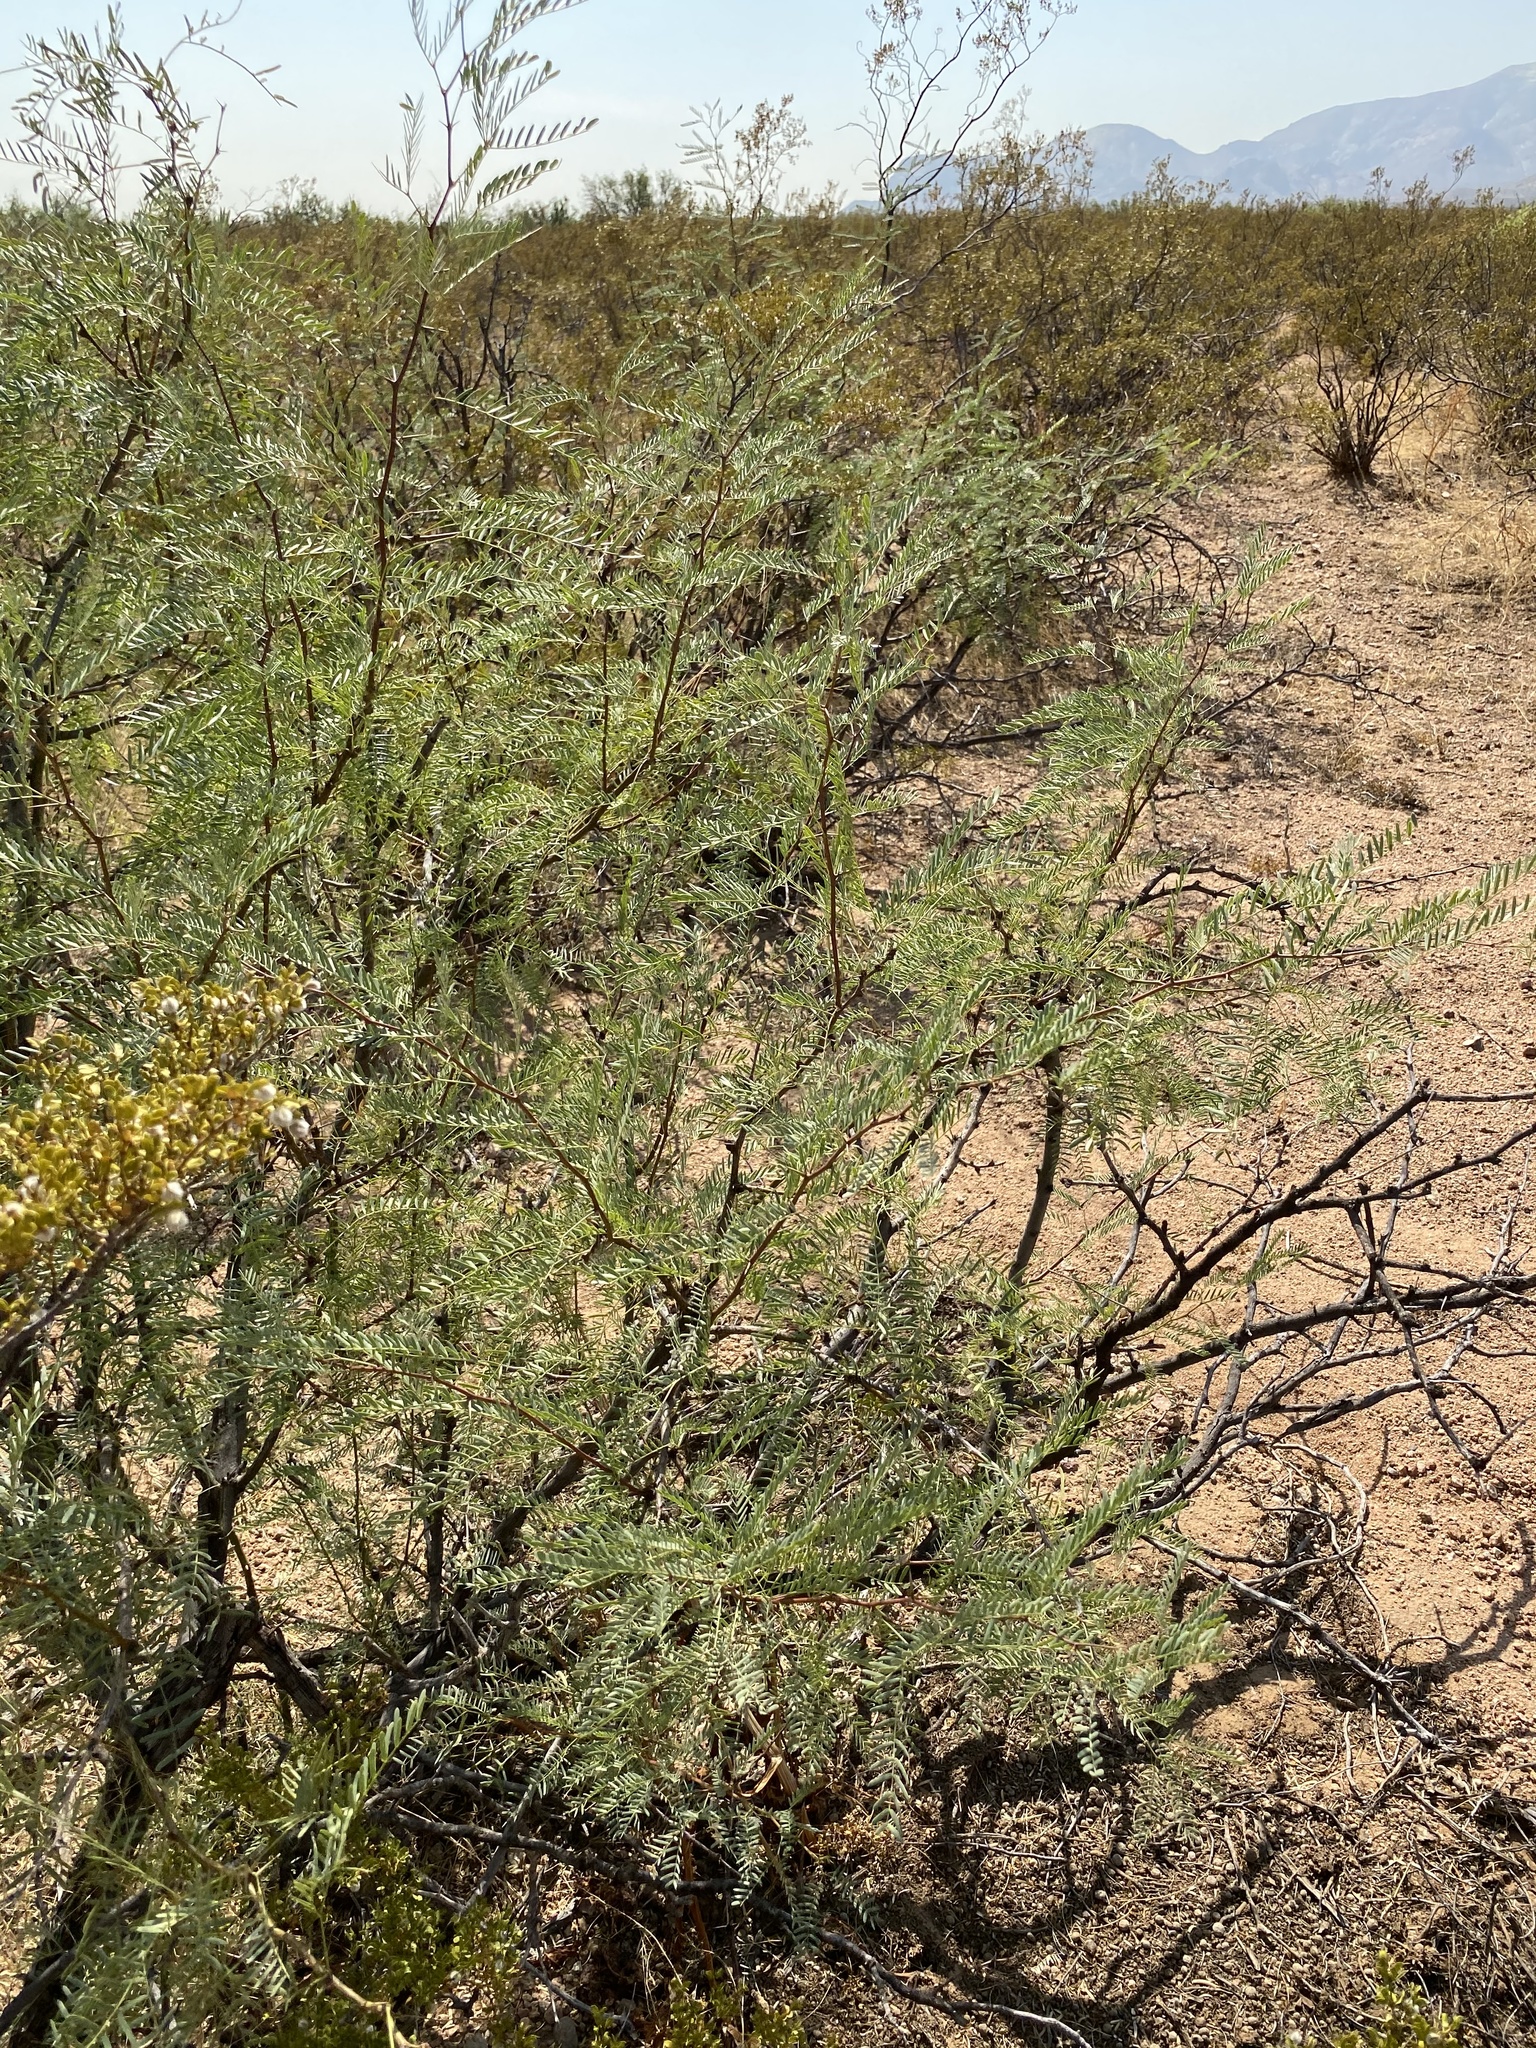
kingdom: Plantae
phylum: Tracheophyta
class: Magnoliopsida
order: Fabales
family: Fabaceae
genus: Prosopis
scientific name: Prosopis glandulosa
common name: Honey mesquite
